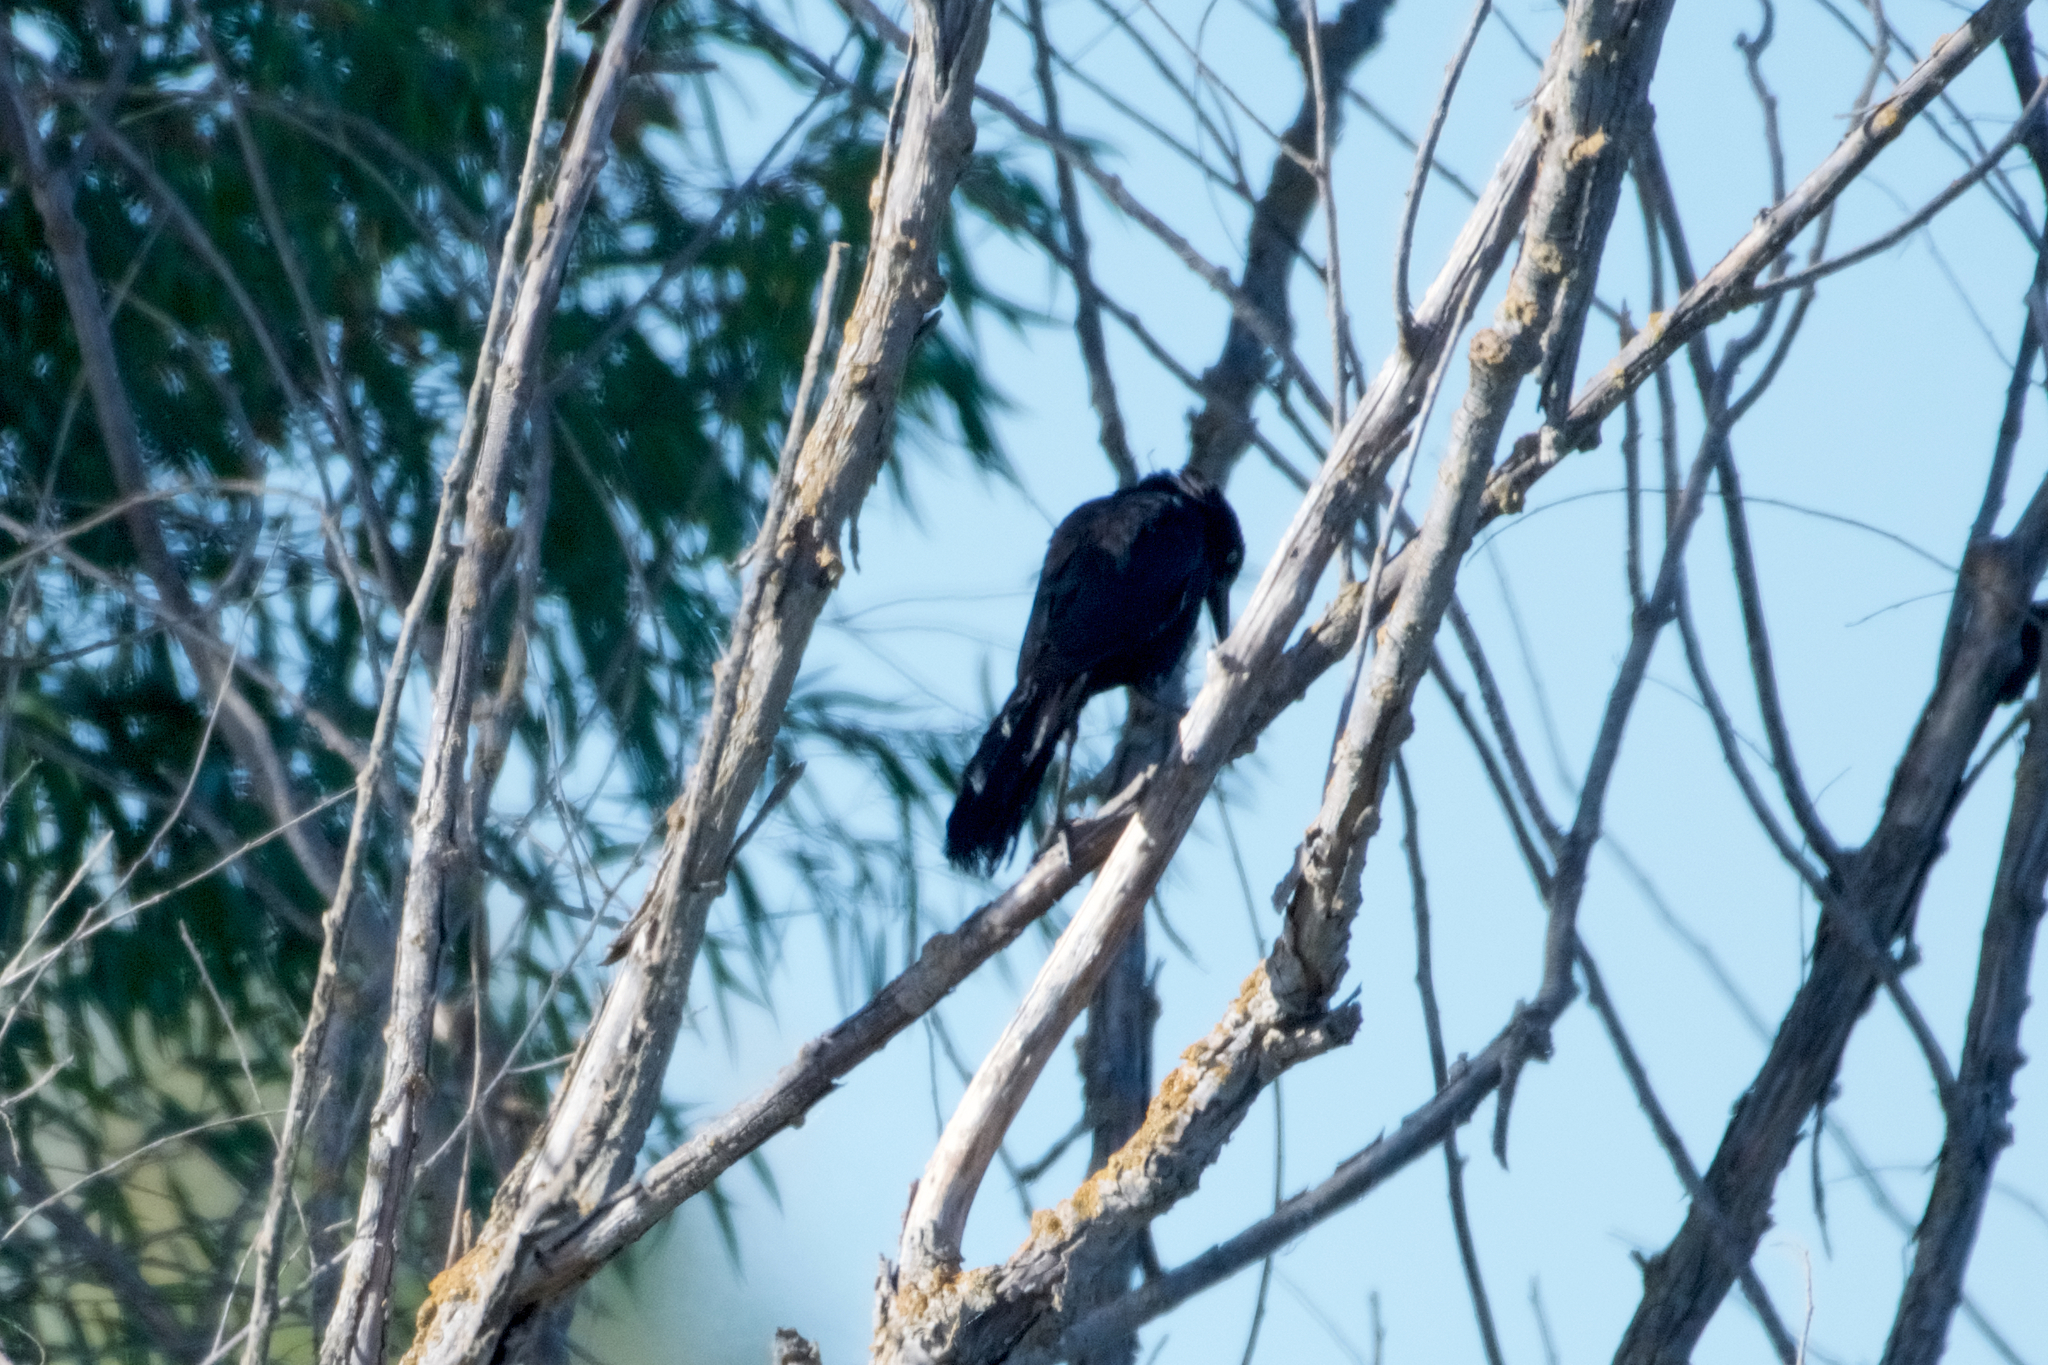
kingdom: Animalia
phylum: Chordata
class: Aves
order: Passeriformes
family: Icteridae
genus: Quiscalus
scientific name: Quiscalus mexicanus
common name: Great-tailed grackle
